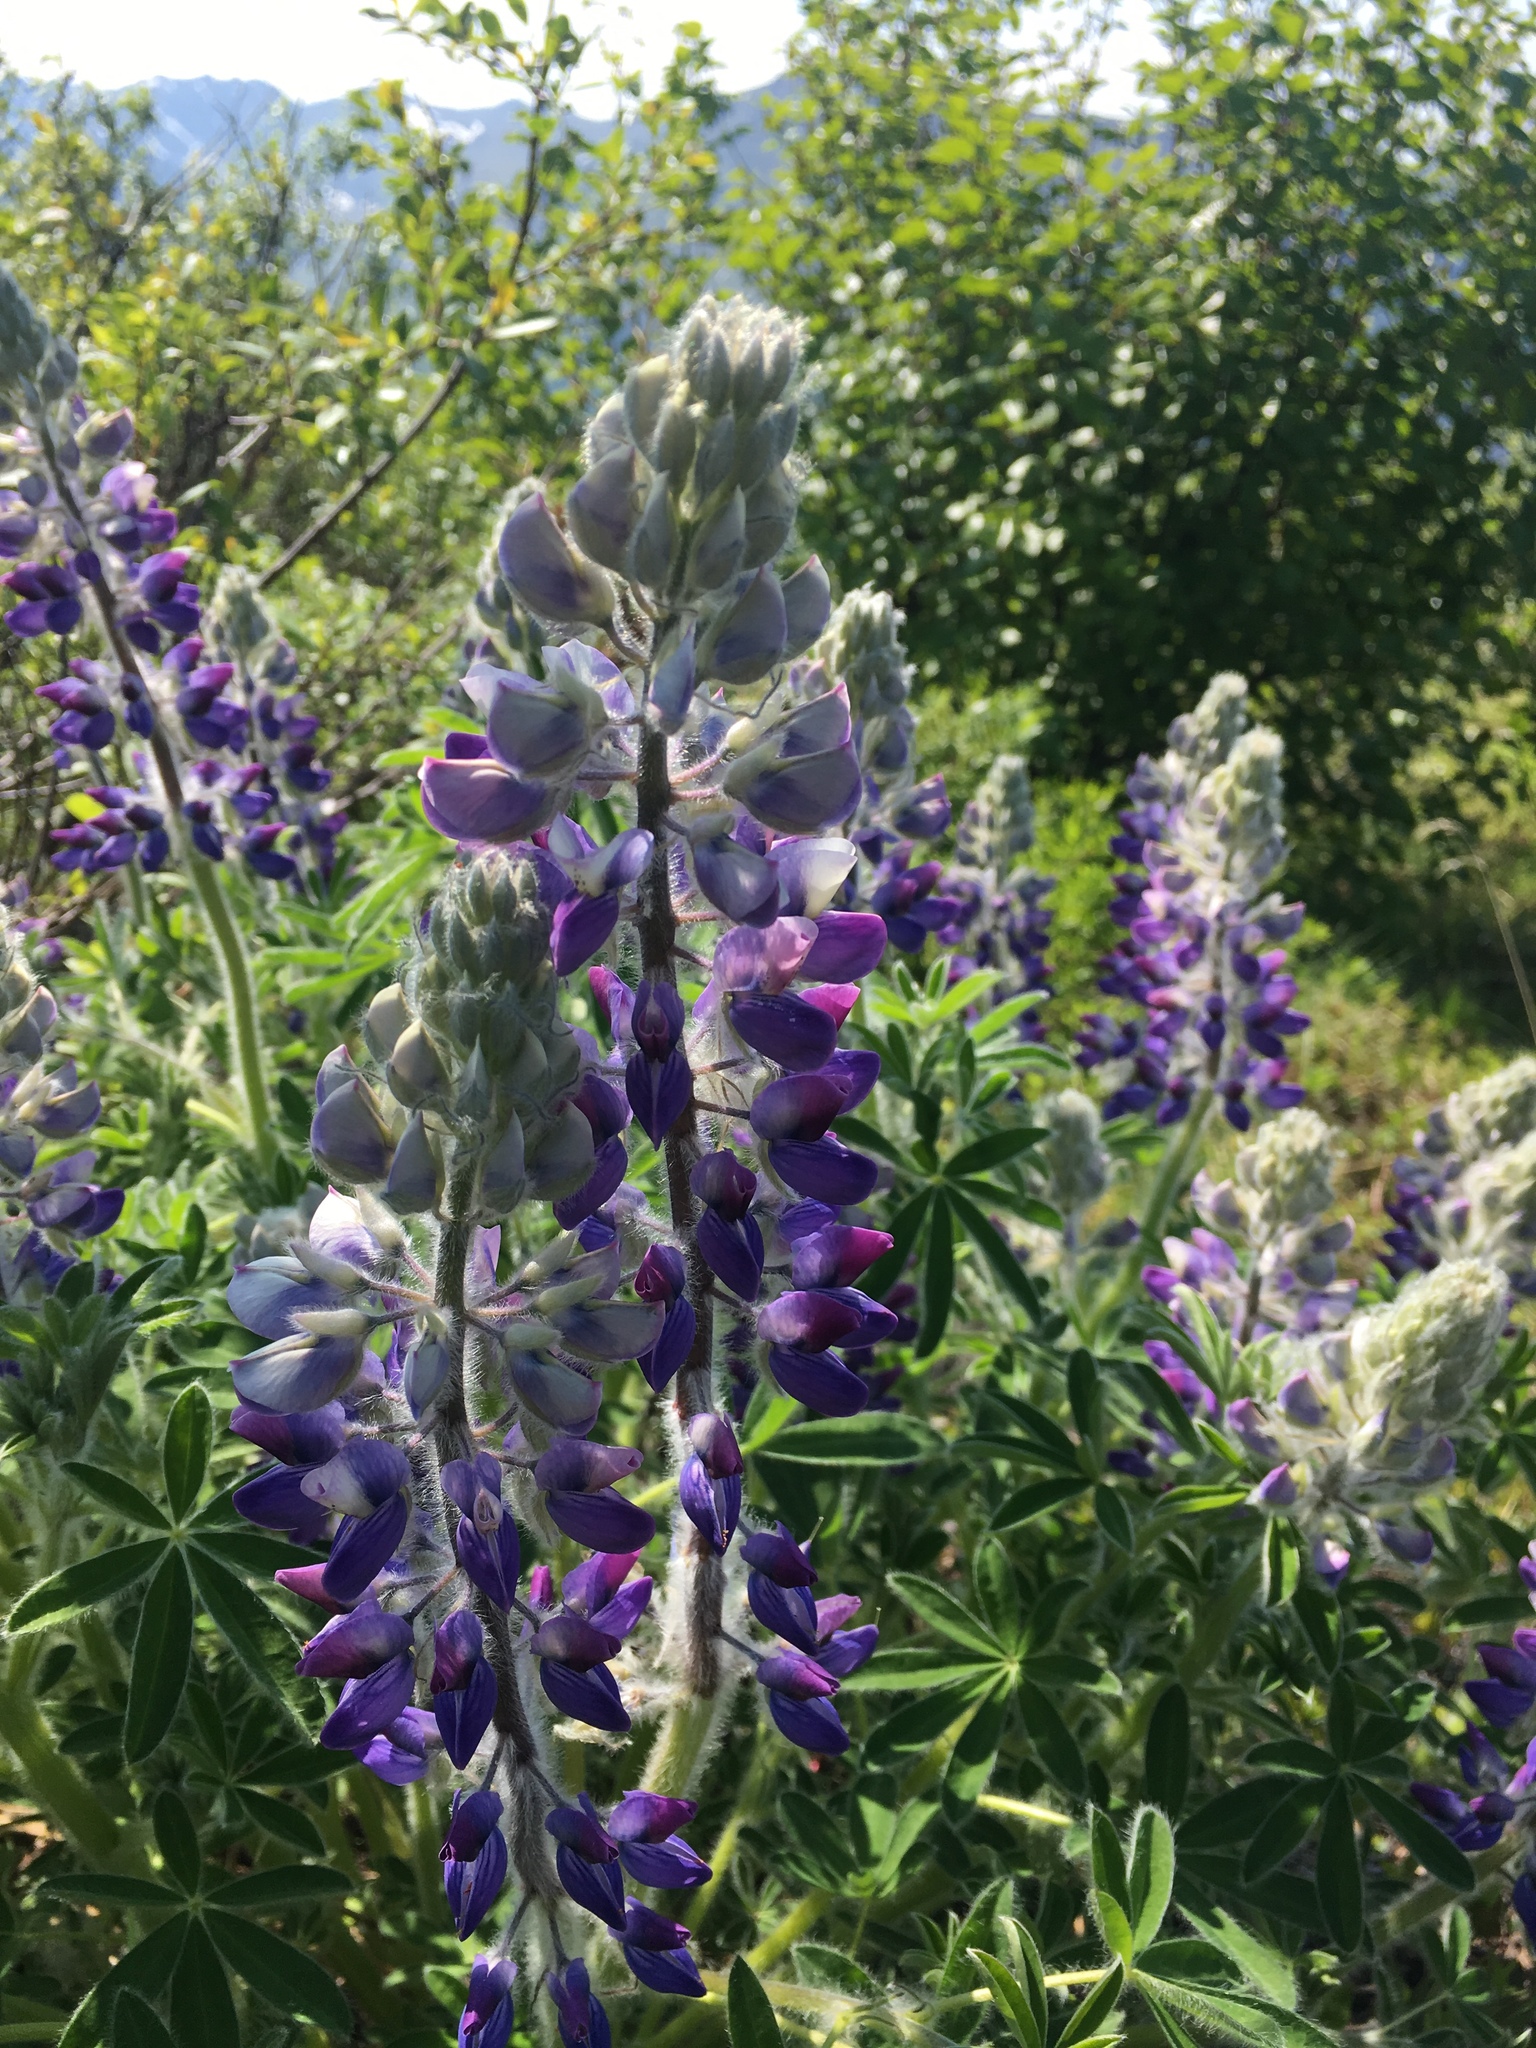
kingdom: Plantae
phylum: Tracheophyta
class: Magnoliopsida
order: Fabales
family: Fabaceae
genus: Lupinus
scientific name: Lupinus nootkatensis
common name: Nootka lupine
